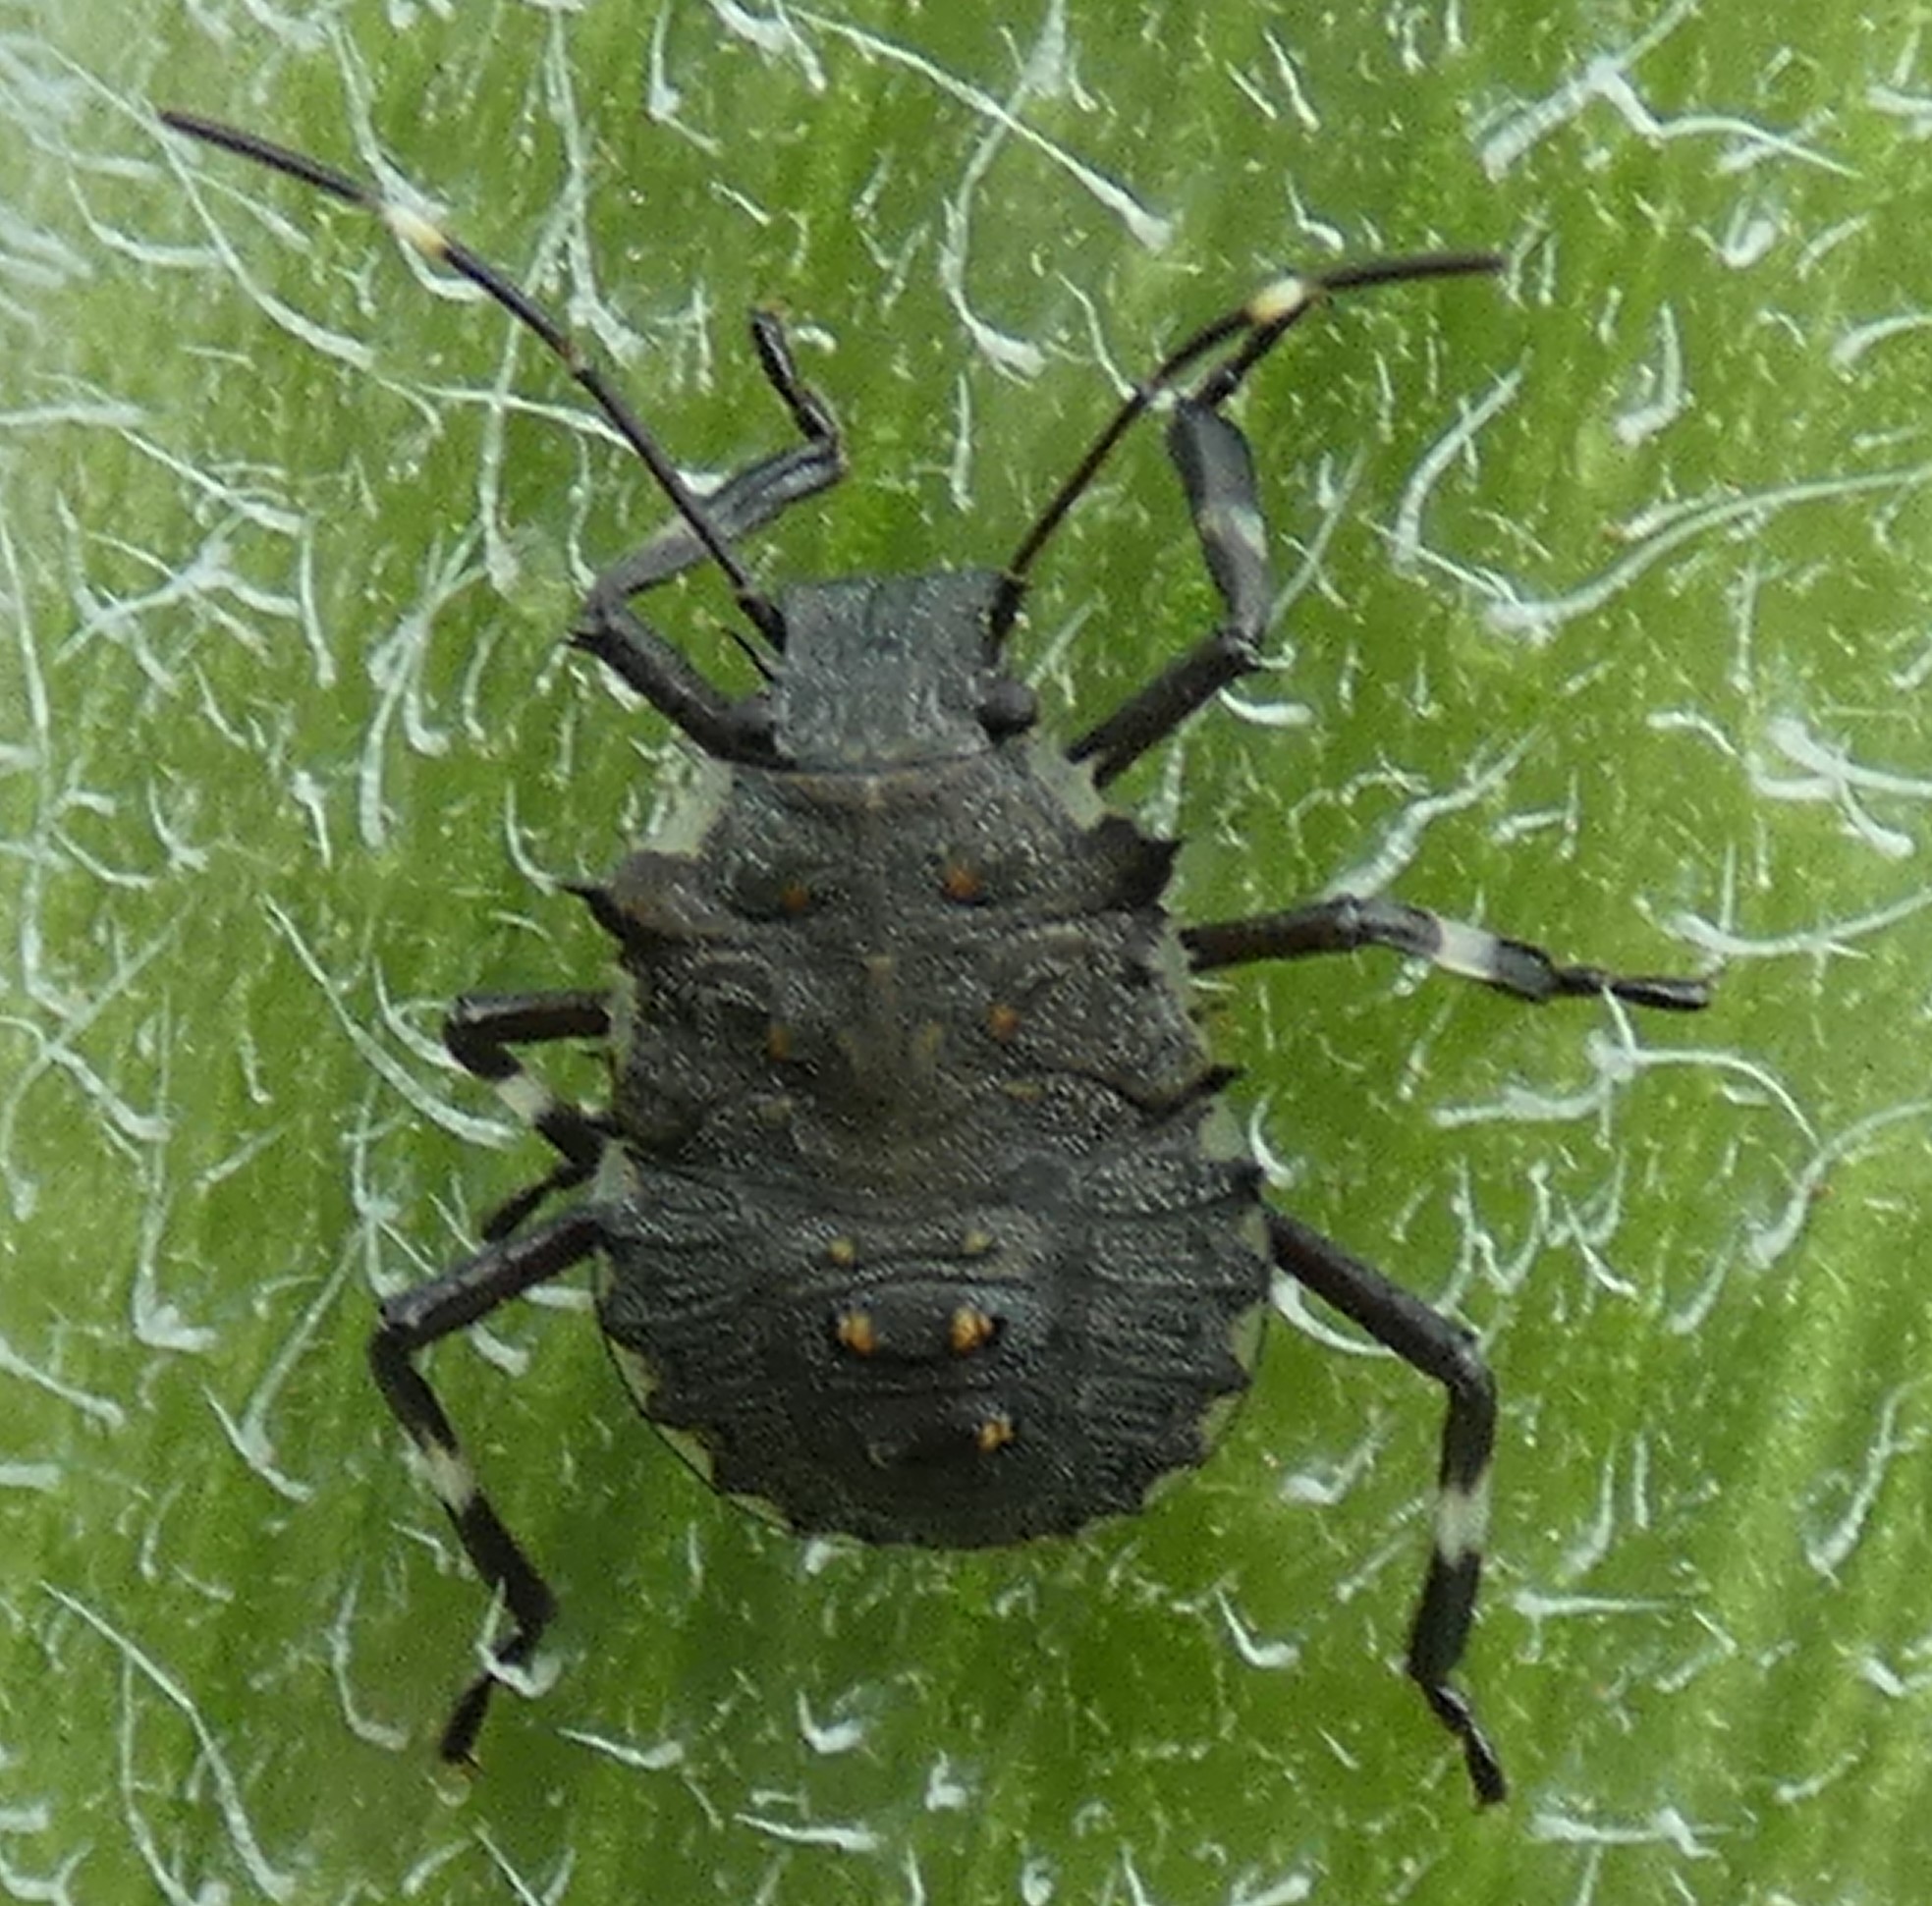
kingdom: Animalia
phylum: Arthropoda
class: Insecta
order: Hemiptera
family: Pentatomidae
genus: Halyomorpha
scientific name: Halyomorpha halys
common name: Brown marmorated stink bug
